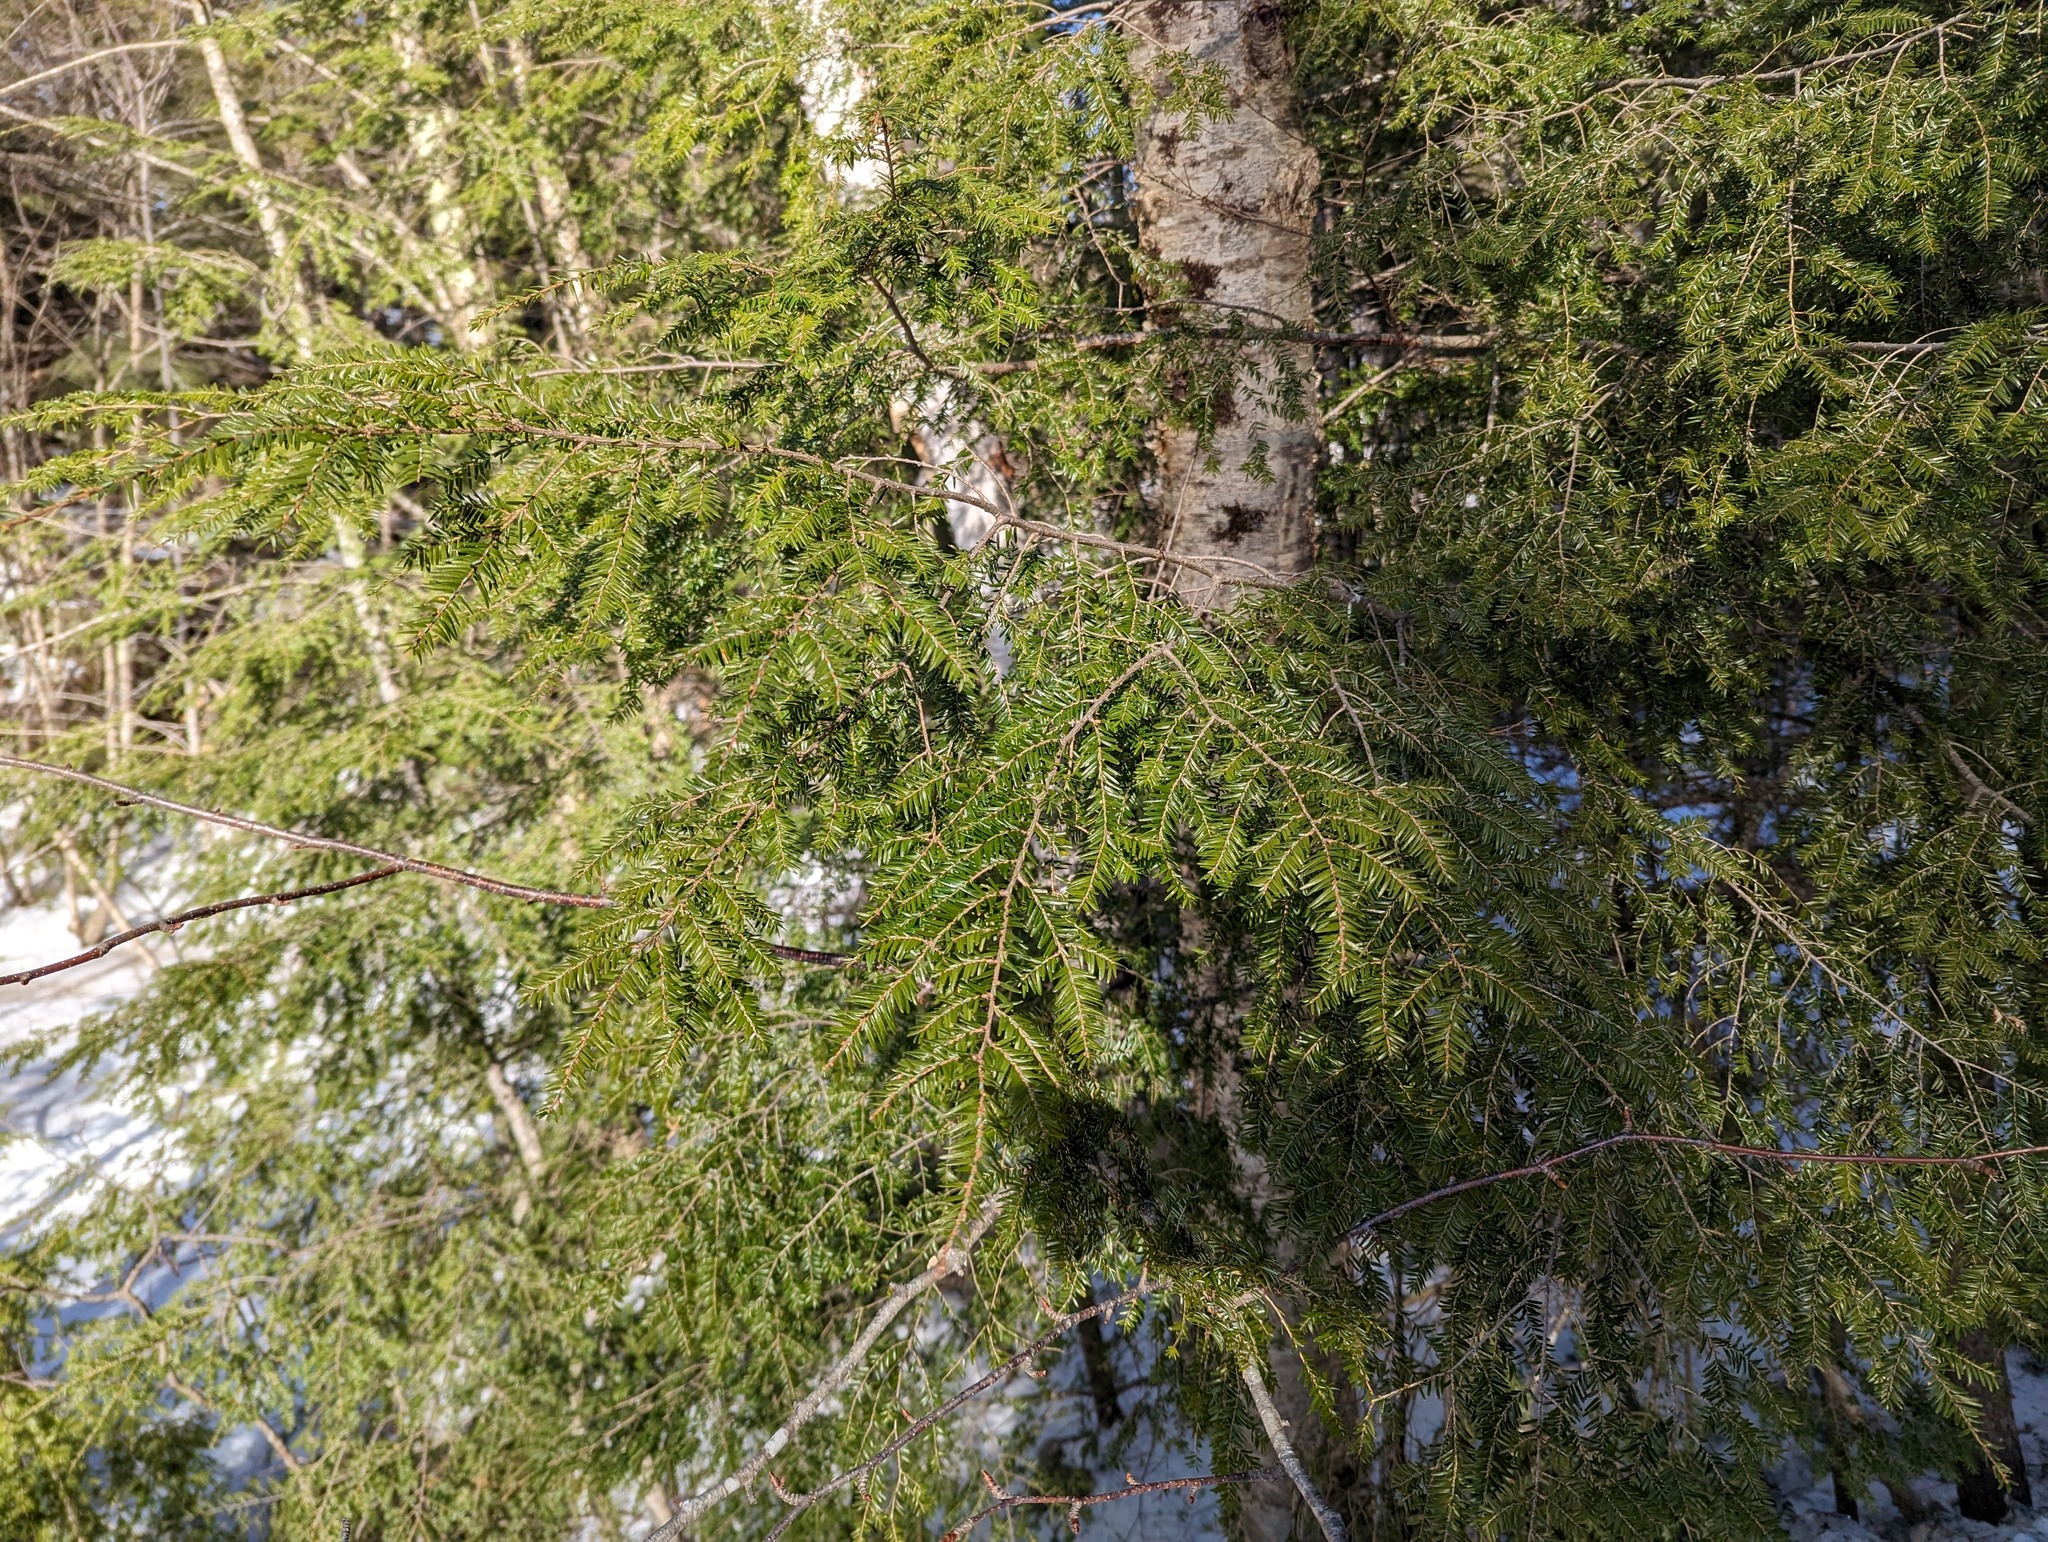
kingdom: Plantae
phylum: Tracheophyta
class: Pinopsida
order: Pinales
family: Pinaceae
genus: Tsuga
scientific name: Tsuga canadensis
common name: Eastern hemlock
